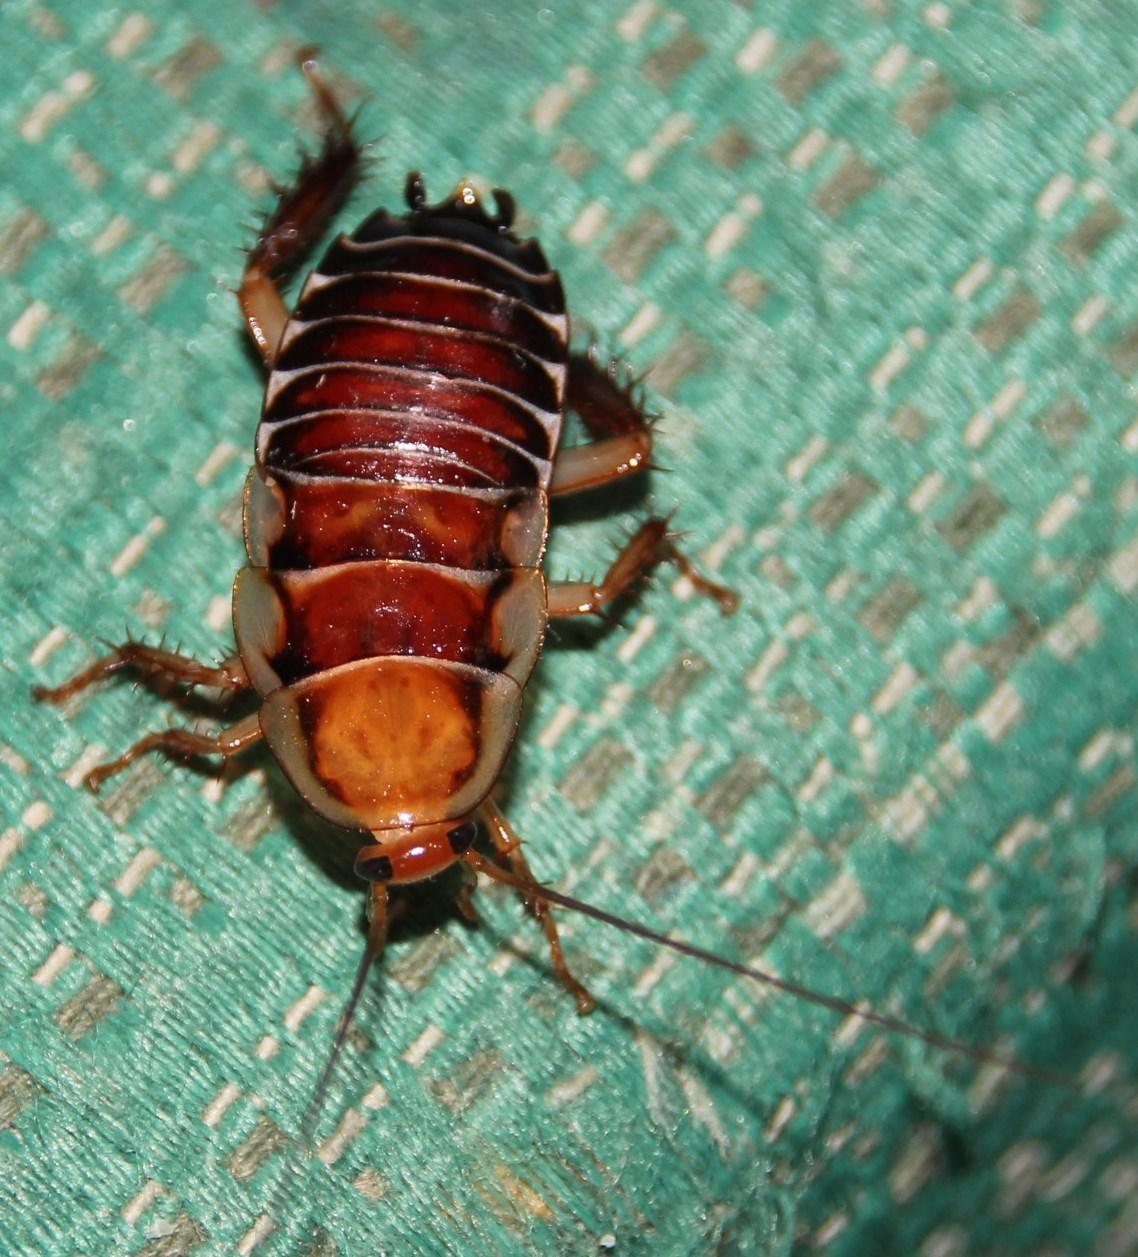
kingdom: Animalia
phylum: Arthropoda
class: Insecta
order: Blattodea
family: Ectobiidae
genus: Temnopteryx
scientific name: Temnopteryx phalerata
